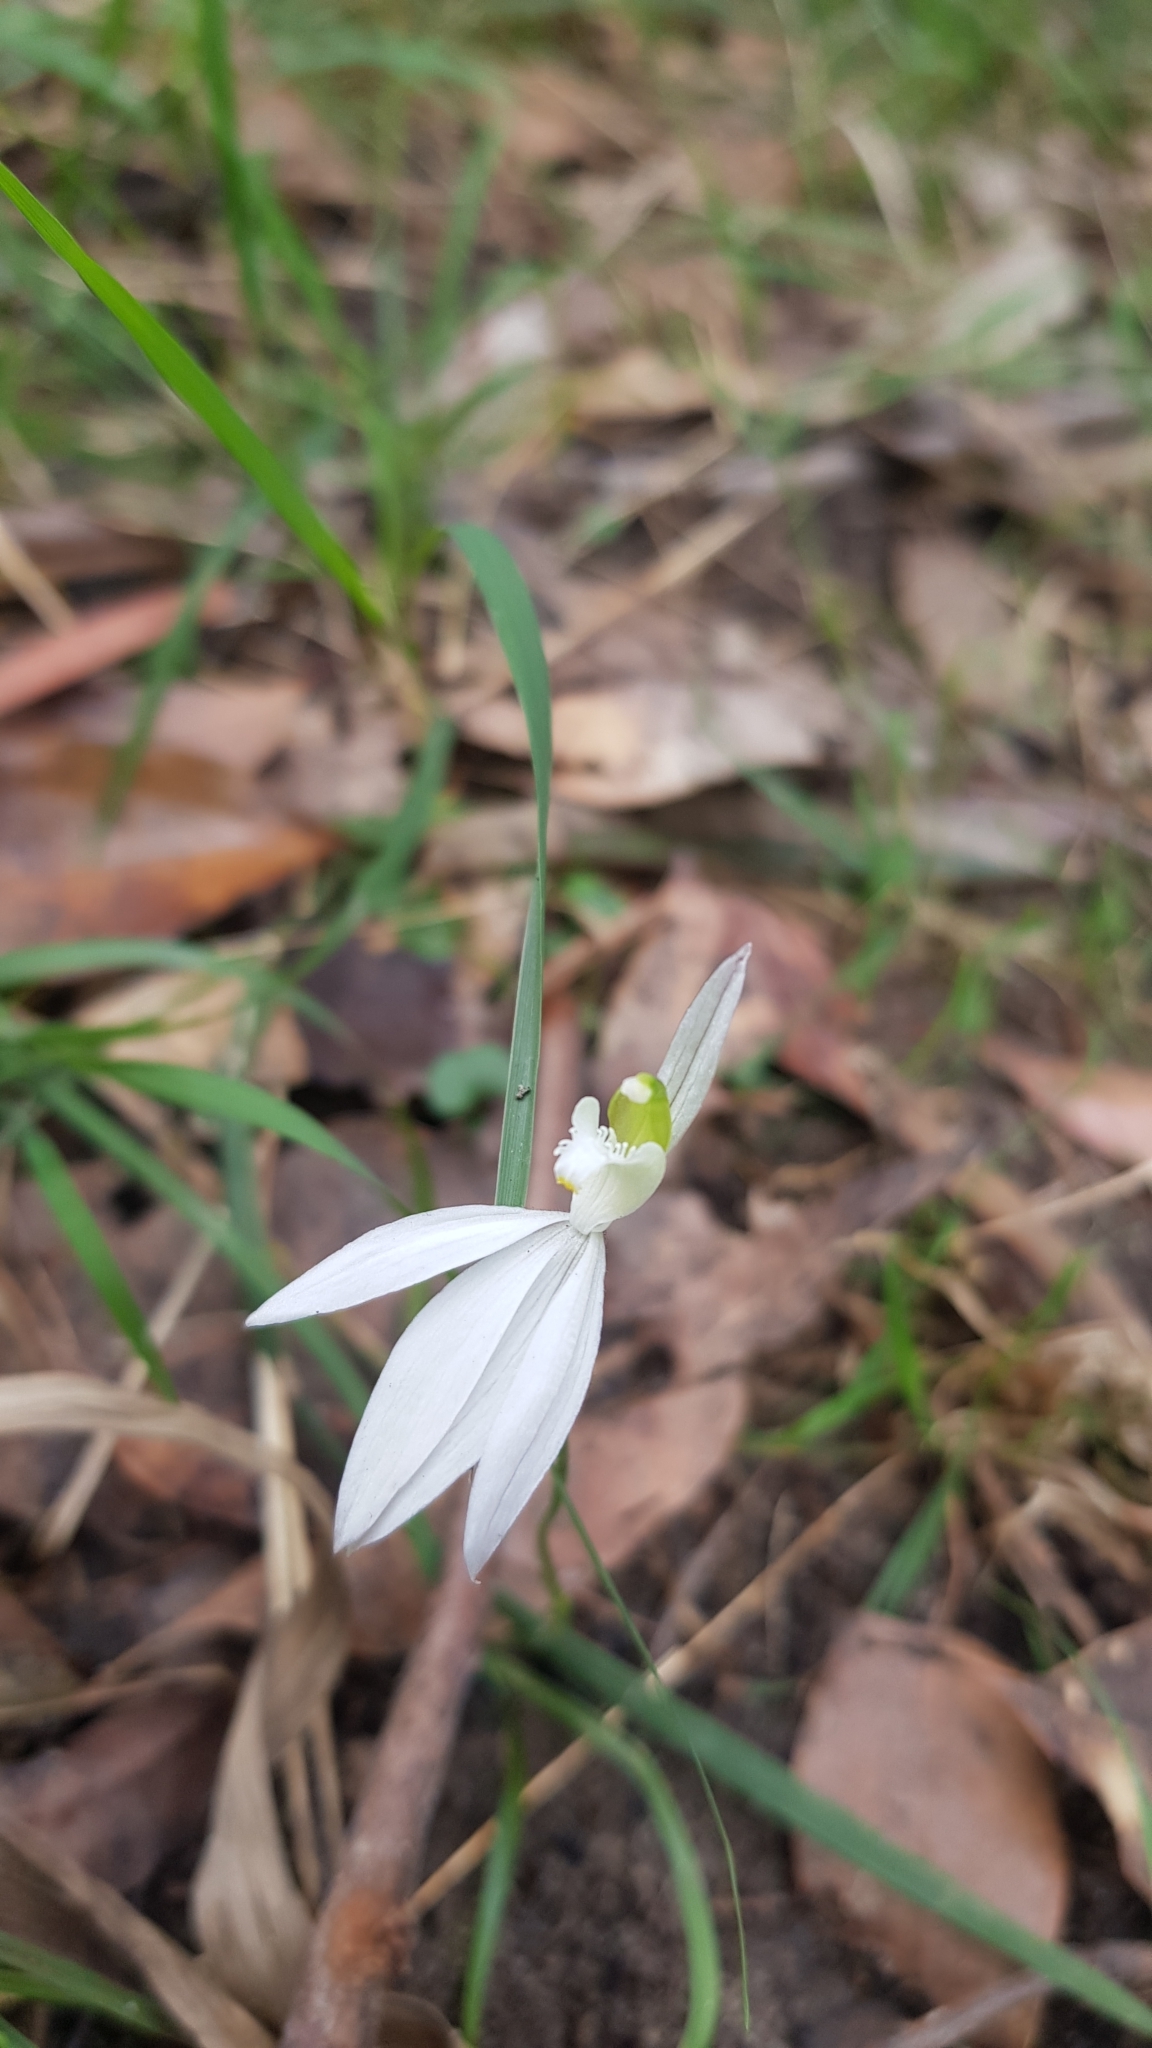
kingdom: Plantae
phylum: Tracheophyta
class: Liliopsida
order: Asparagales
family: Orchidaceae
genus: Caladenia
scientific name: Caladenia catenata
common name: White caladenia
